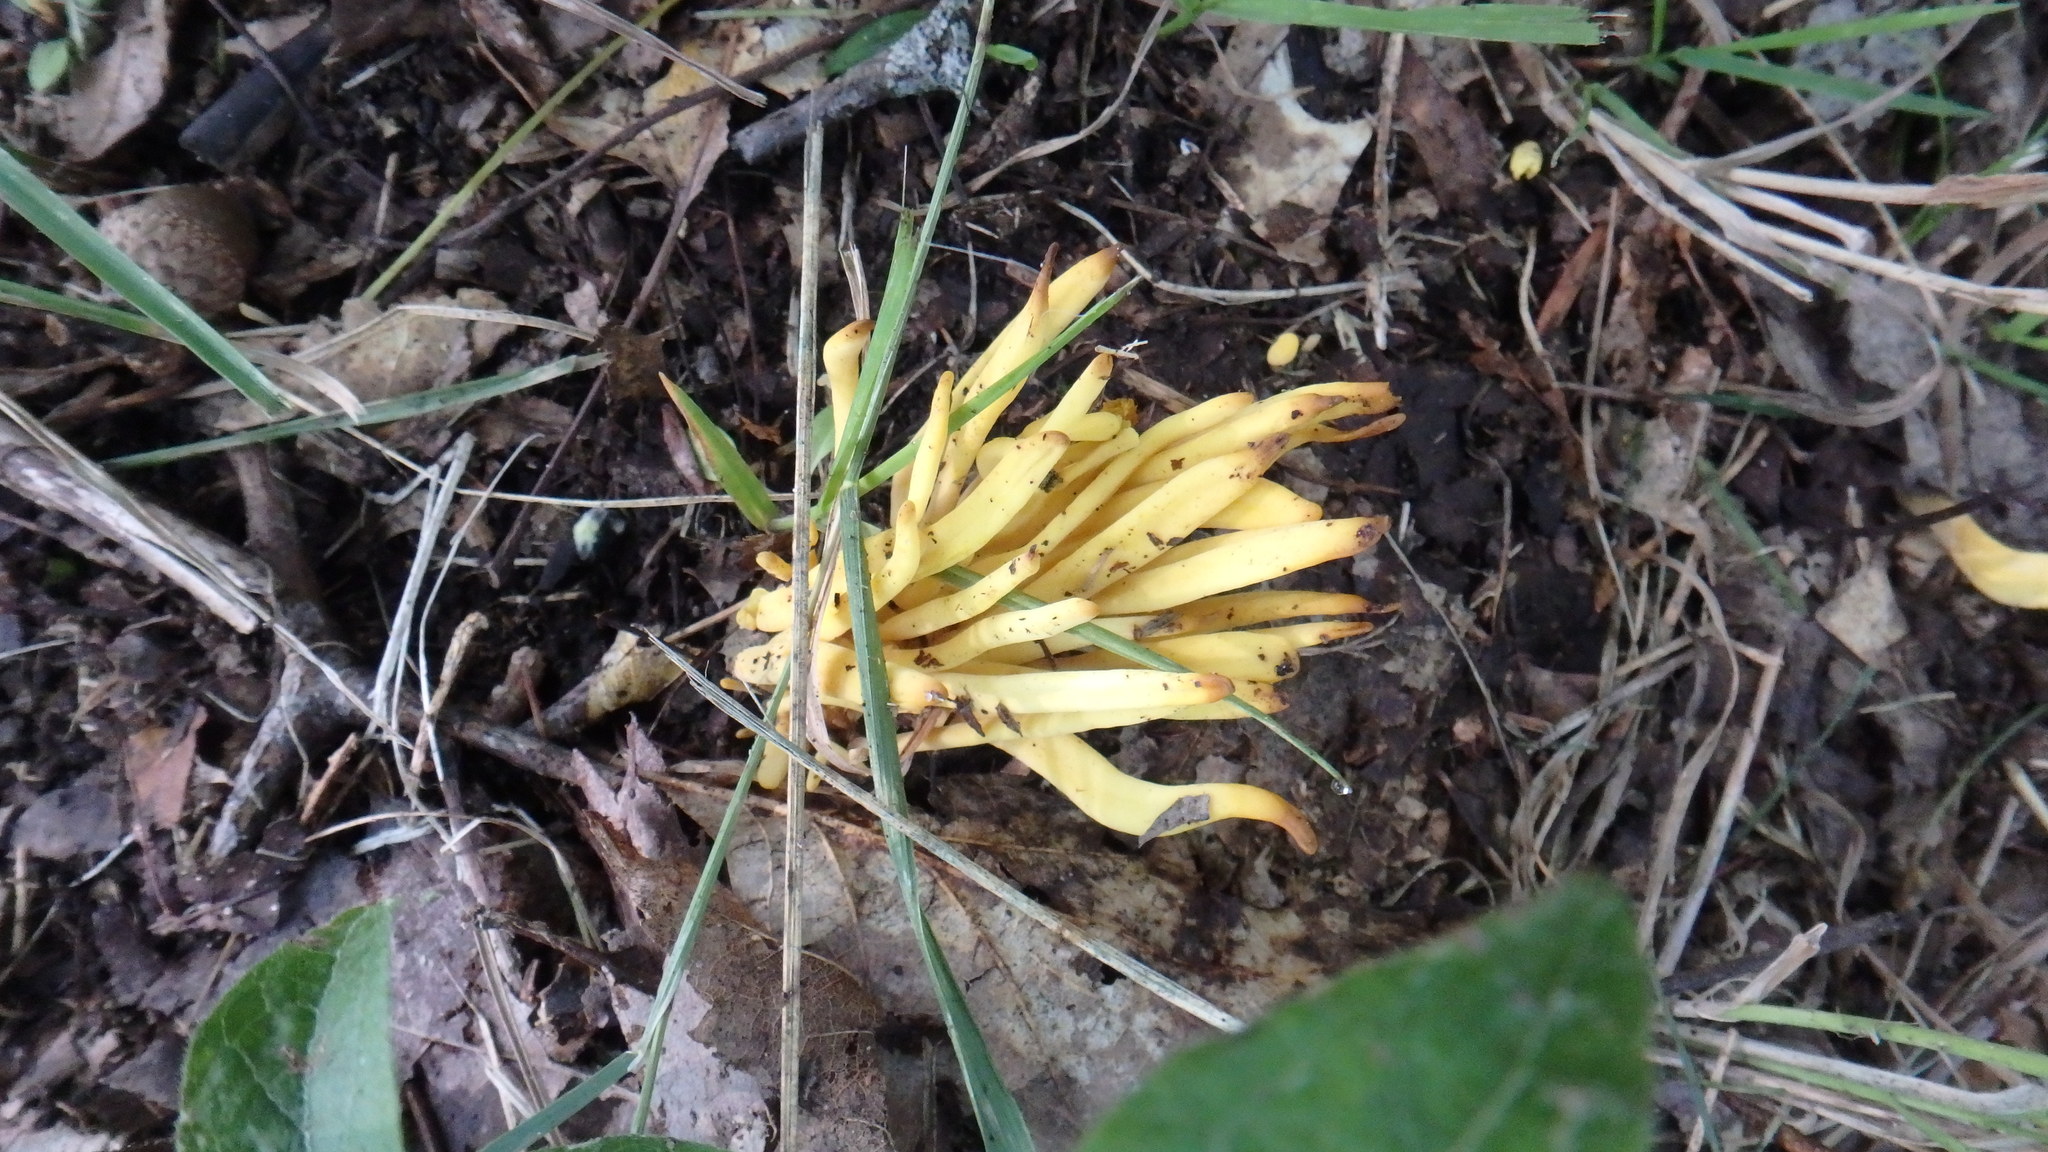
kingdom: Fungi
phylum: Basidiomycota
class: Agaricomycetes
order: Agaricales
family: Clavariaceae
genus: Clavulinopsis
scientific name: Clavulinopsis fusiformis
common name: Golden spindles
